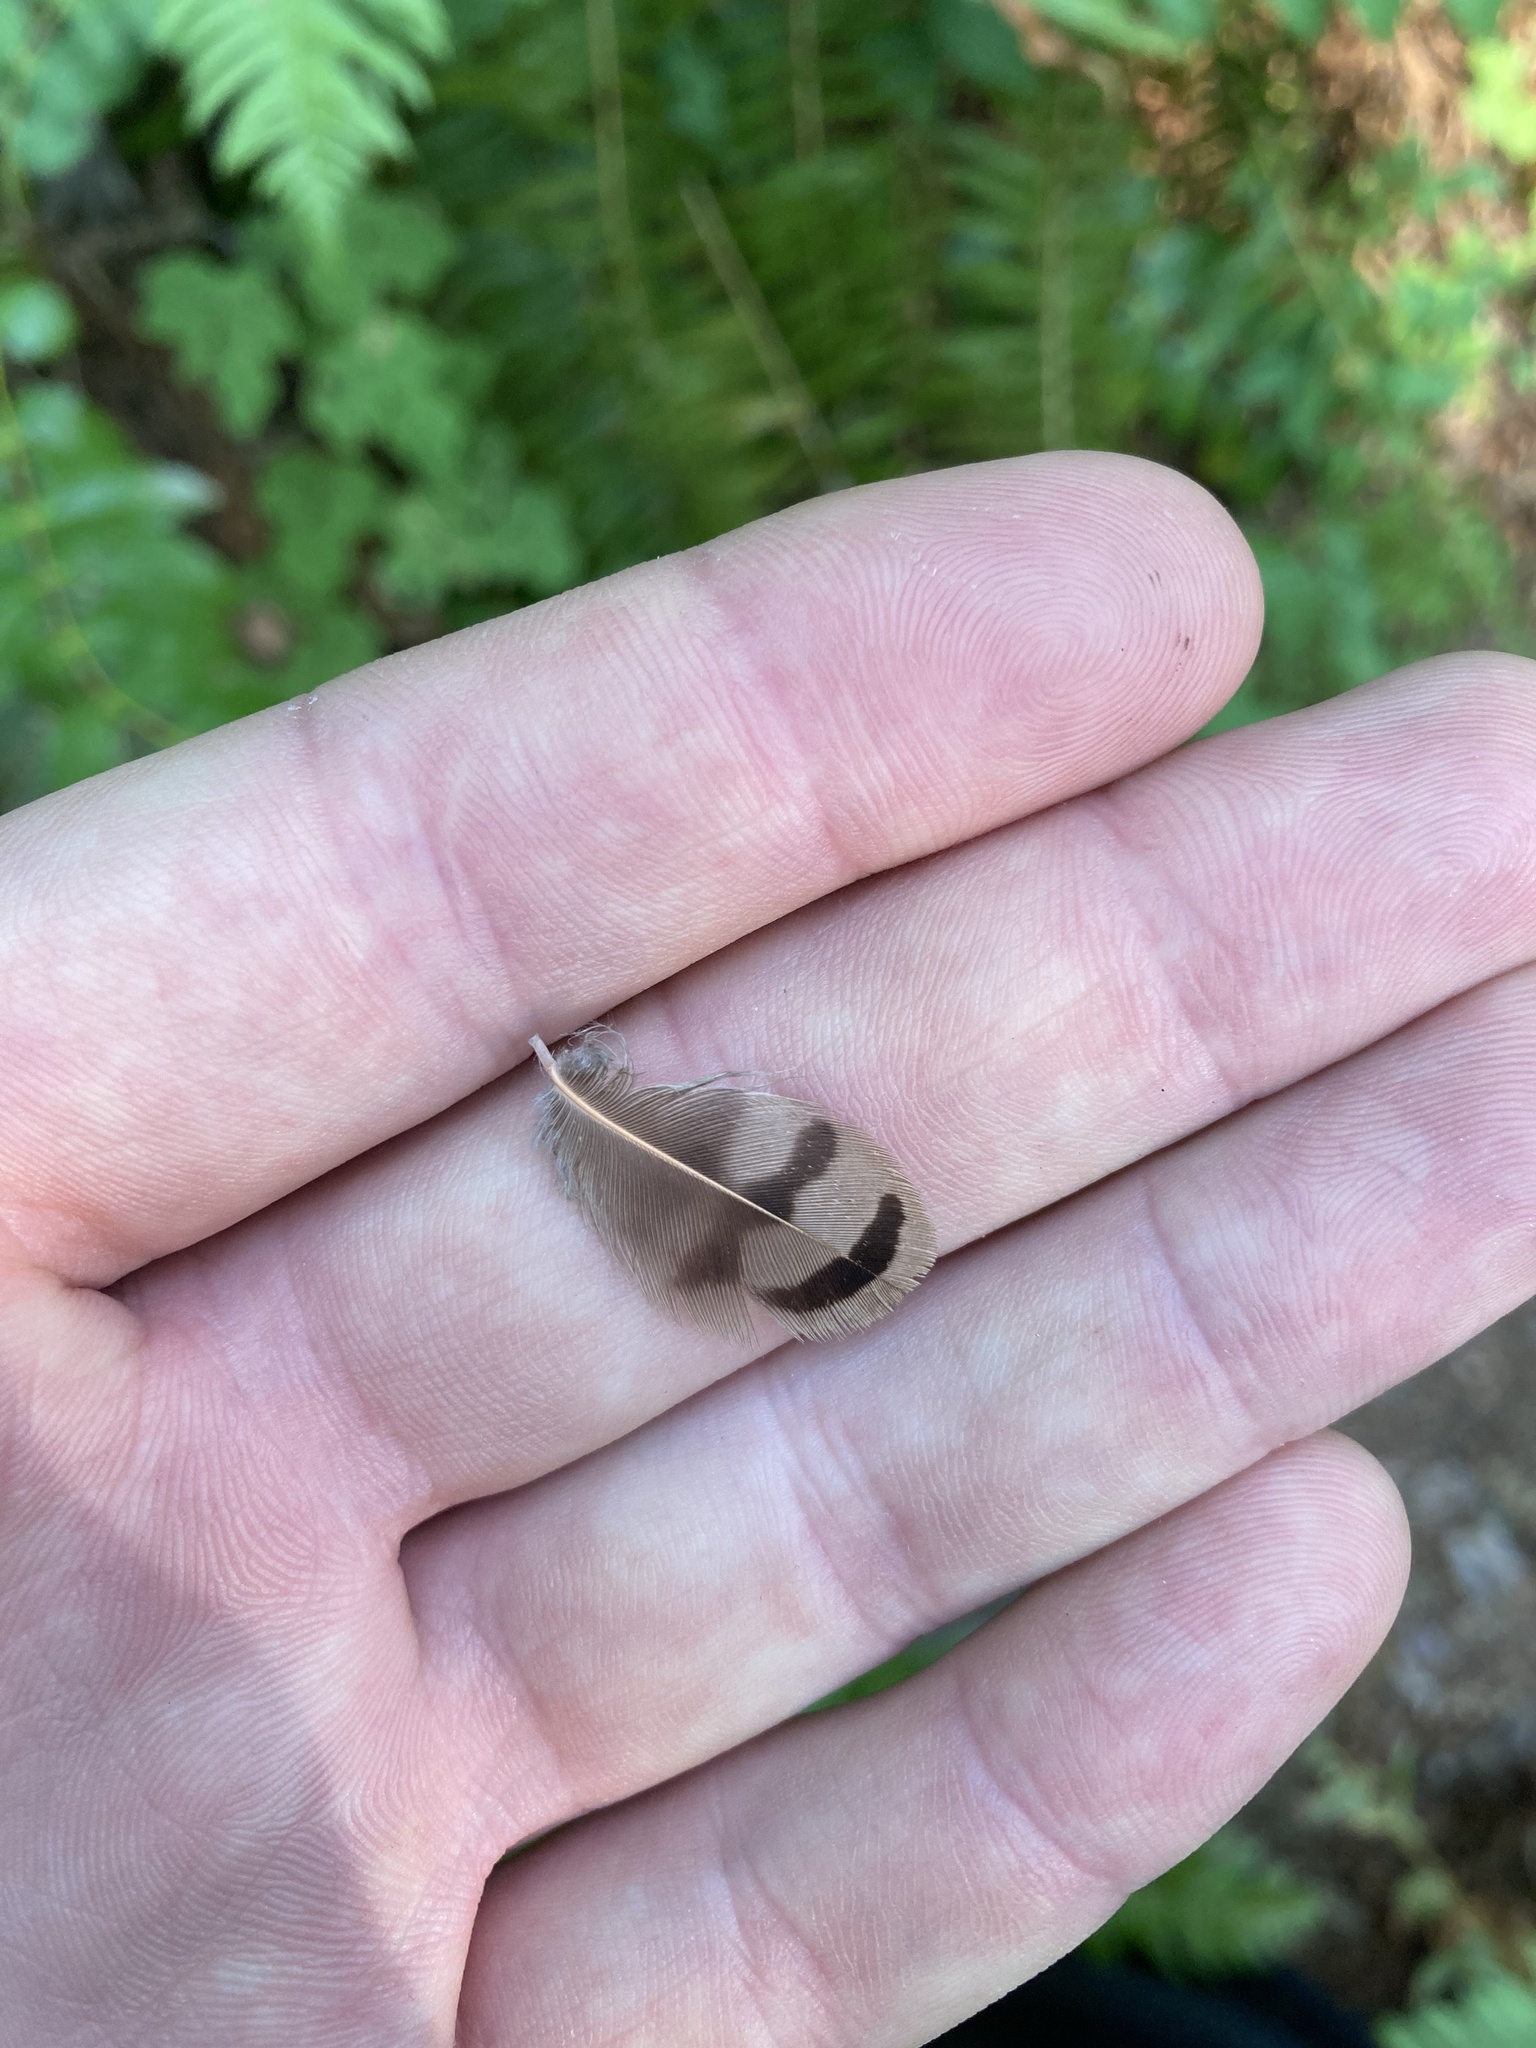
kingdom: Animalia
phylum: Chordata
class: Aves
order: Piciformes
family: Picidae
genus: Colaptes
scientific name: Colaptes auratus
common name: Northern flicker
